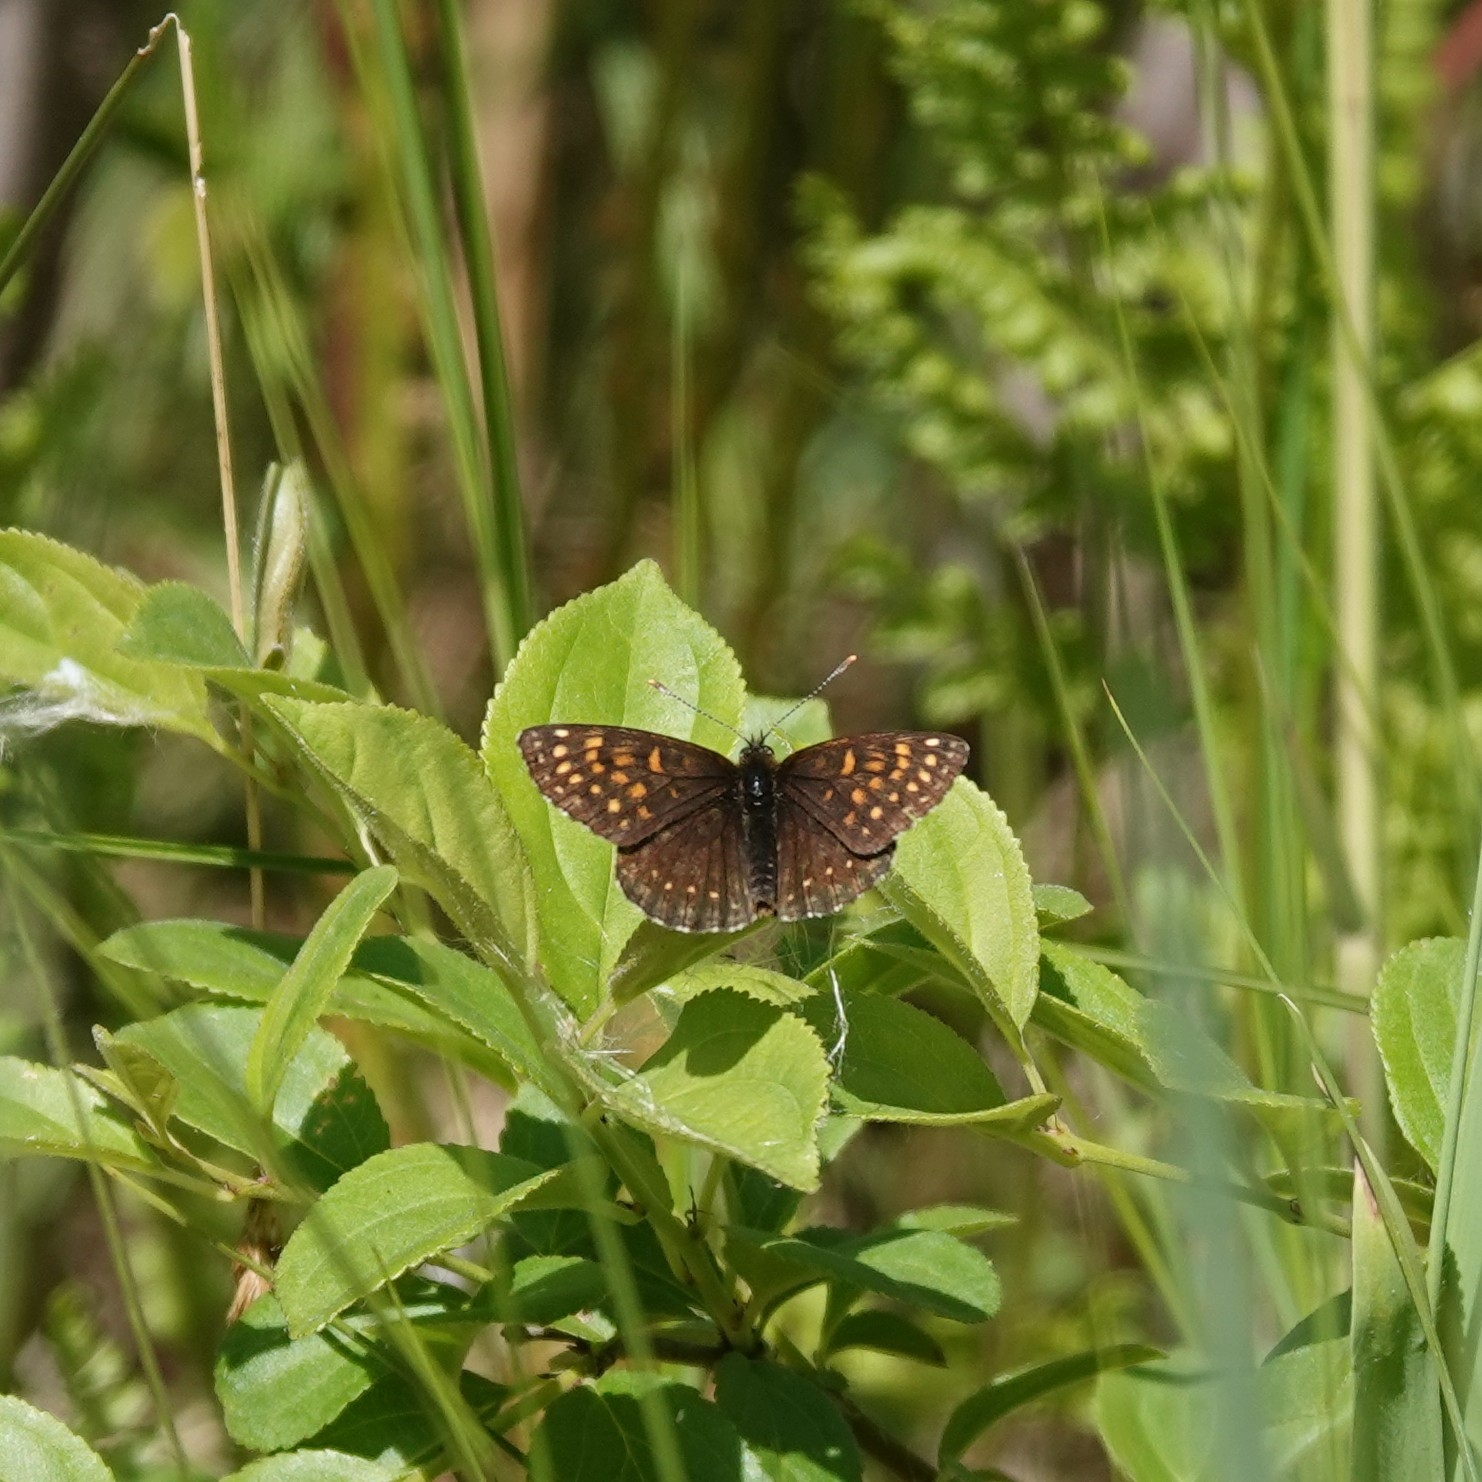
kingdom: Animalia
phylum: Arthropoda
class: Insecta
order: Lepidoptera
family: Nymphalidae
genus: Melitaea
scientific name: Melitaea diamina
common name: False heath fritillary
